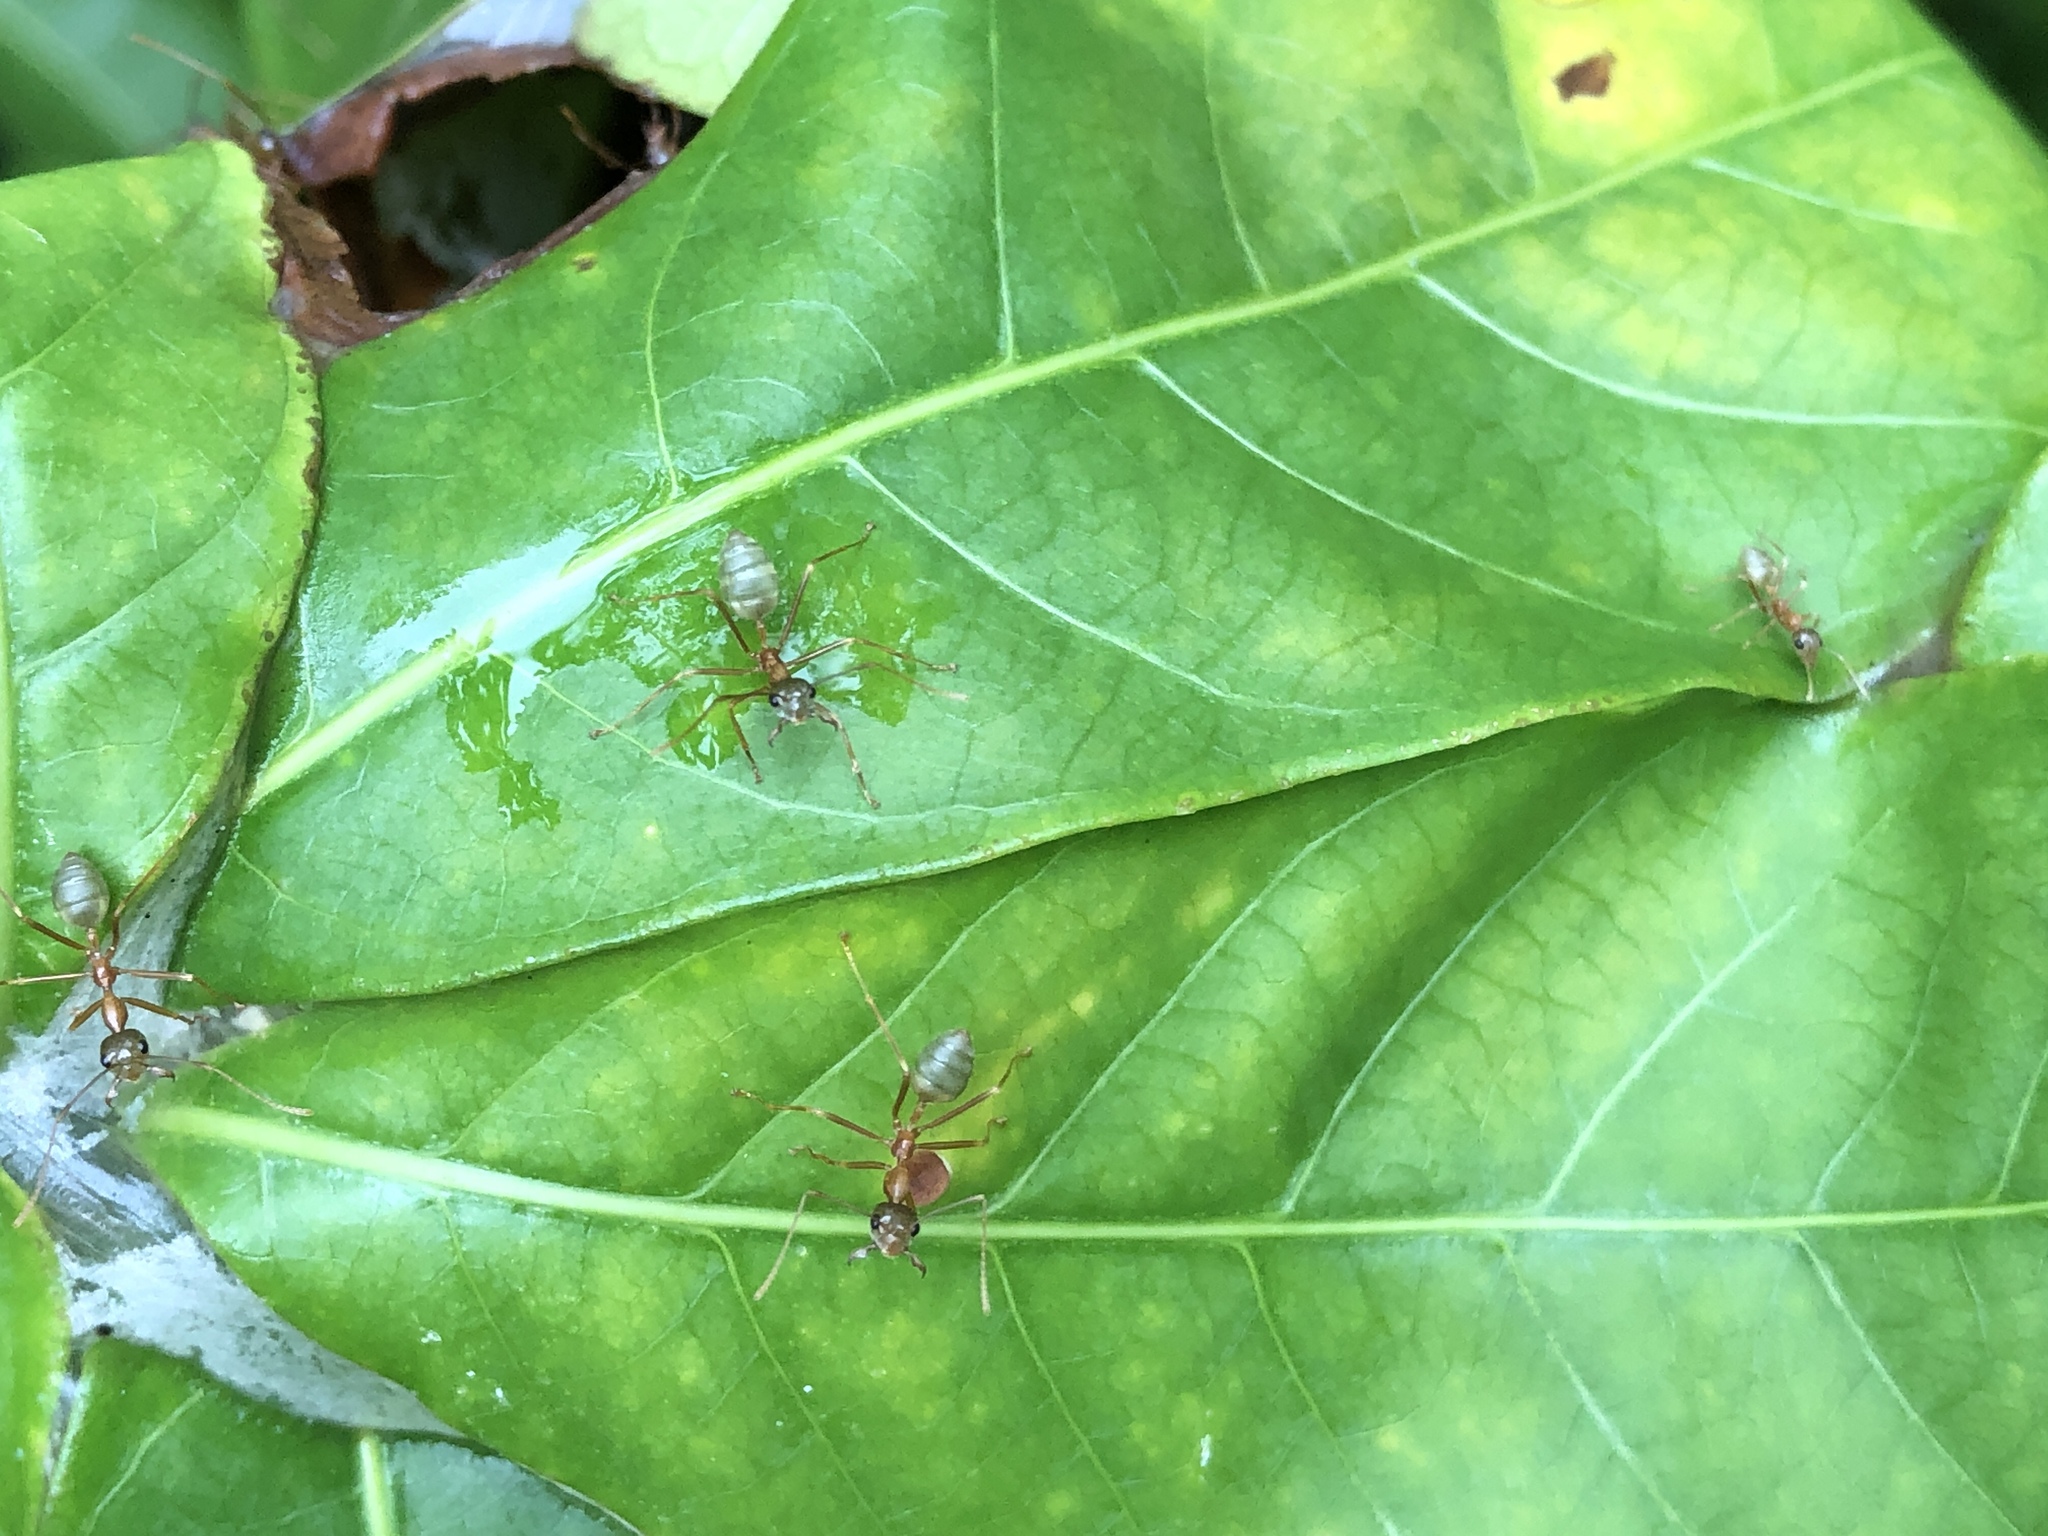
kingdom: Animalia
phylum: Arthropoda
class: Insecta
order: Hymenoptera
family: Formicidae
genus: Oecophylla
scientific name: Oecophylla smaragdina
